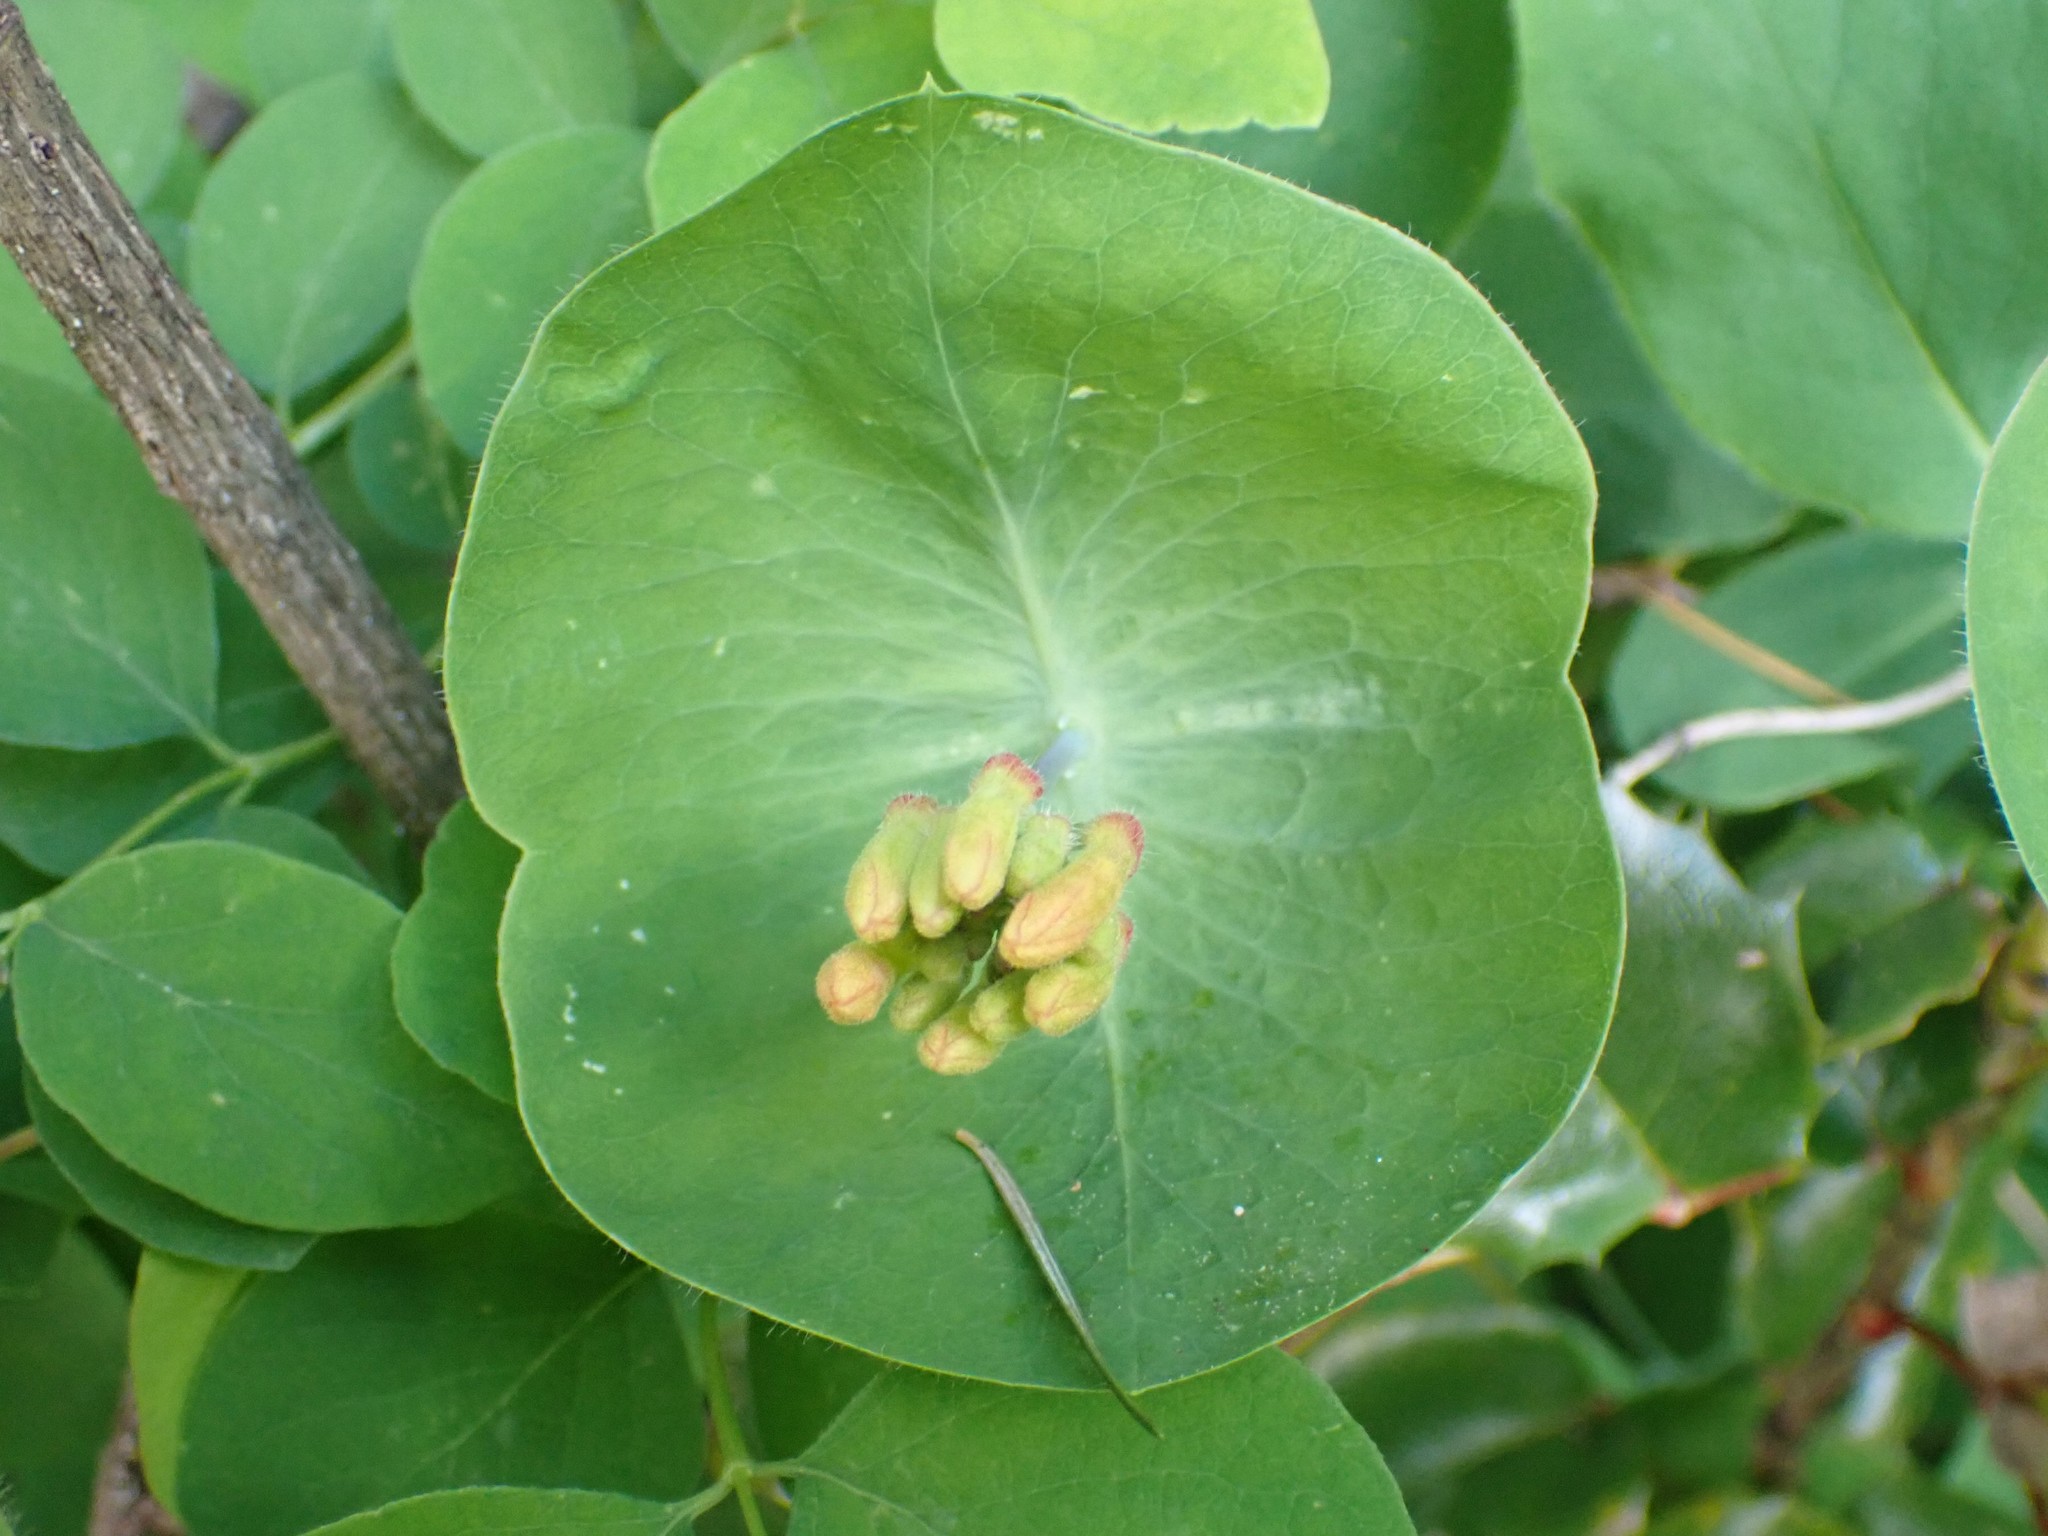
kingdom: Plantae
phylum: Tracheophyta
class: Magnoliopsida
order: Dipsacales
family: Caprifoliaceae
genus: Lonicera
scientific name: Lonicera ciliosa
